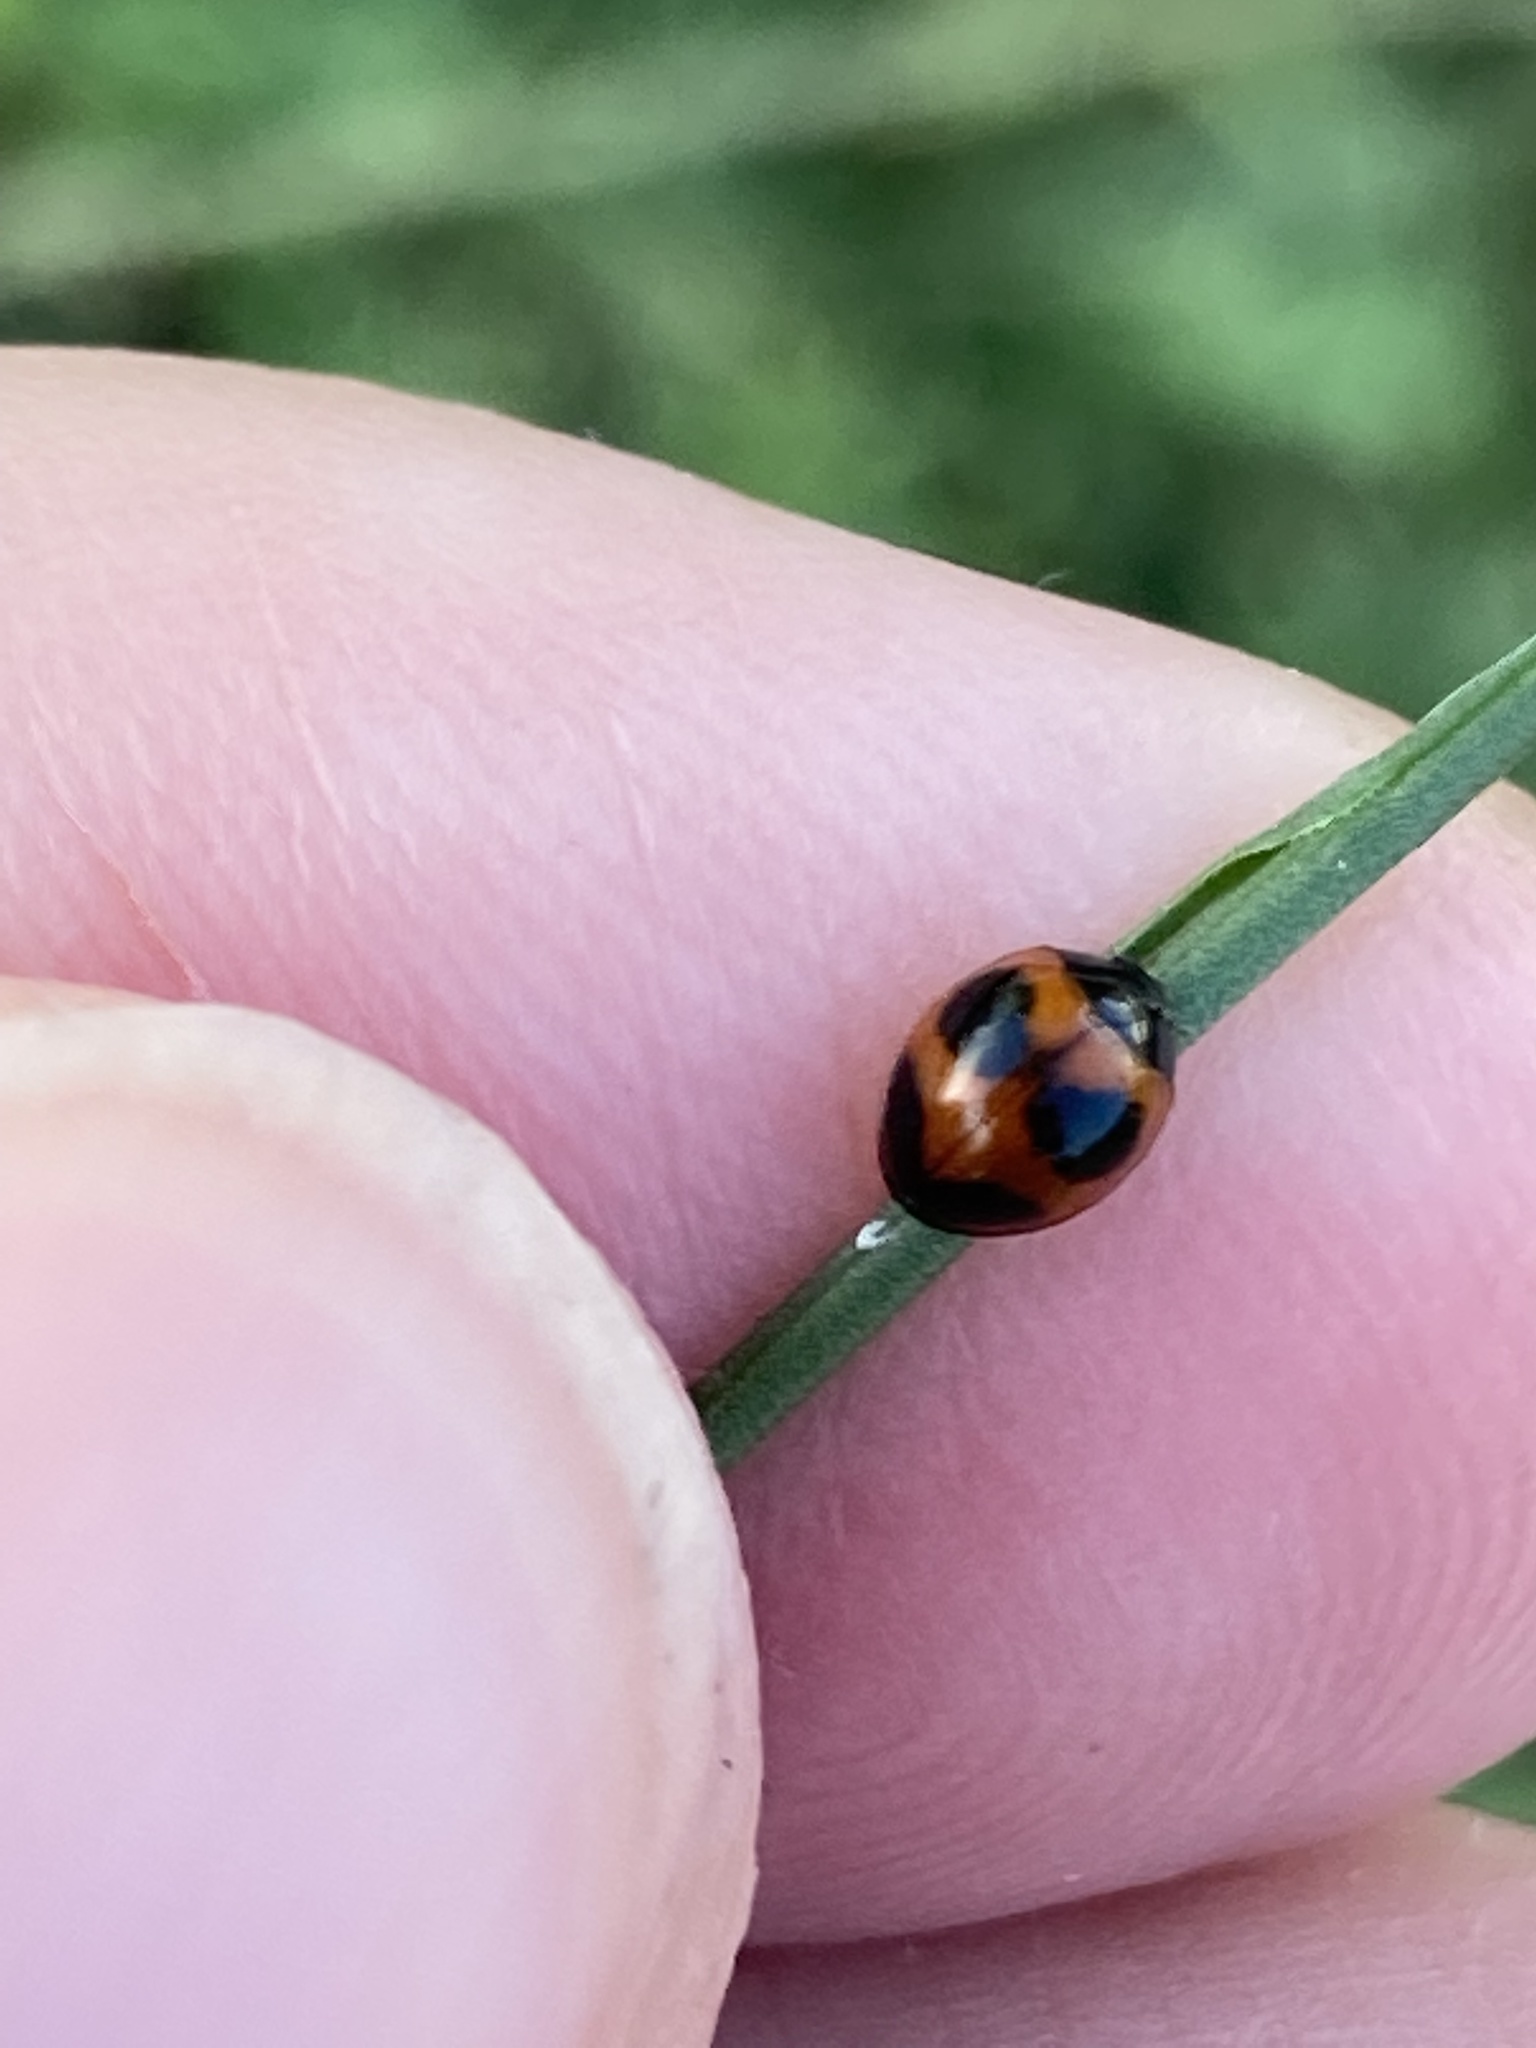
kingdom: Animalia
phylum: Arthropoda
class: Insecta
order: Coleoptera
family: Coccinellidae
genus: Exochomus
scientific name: Exochomus childreni
